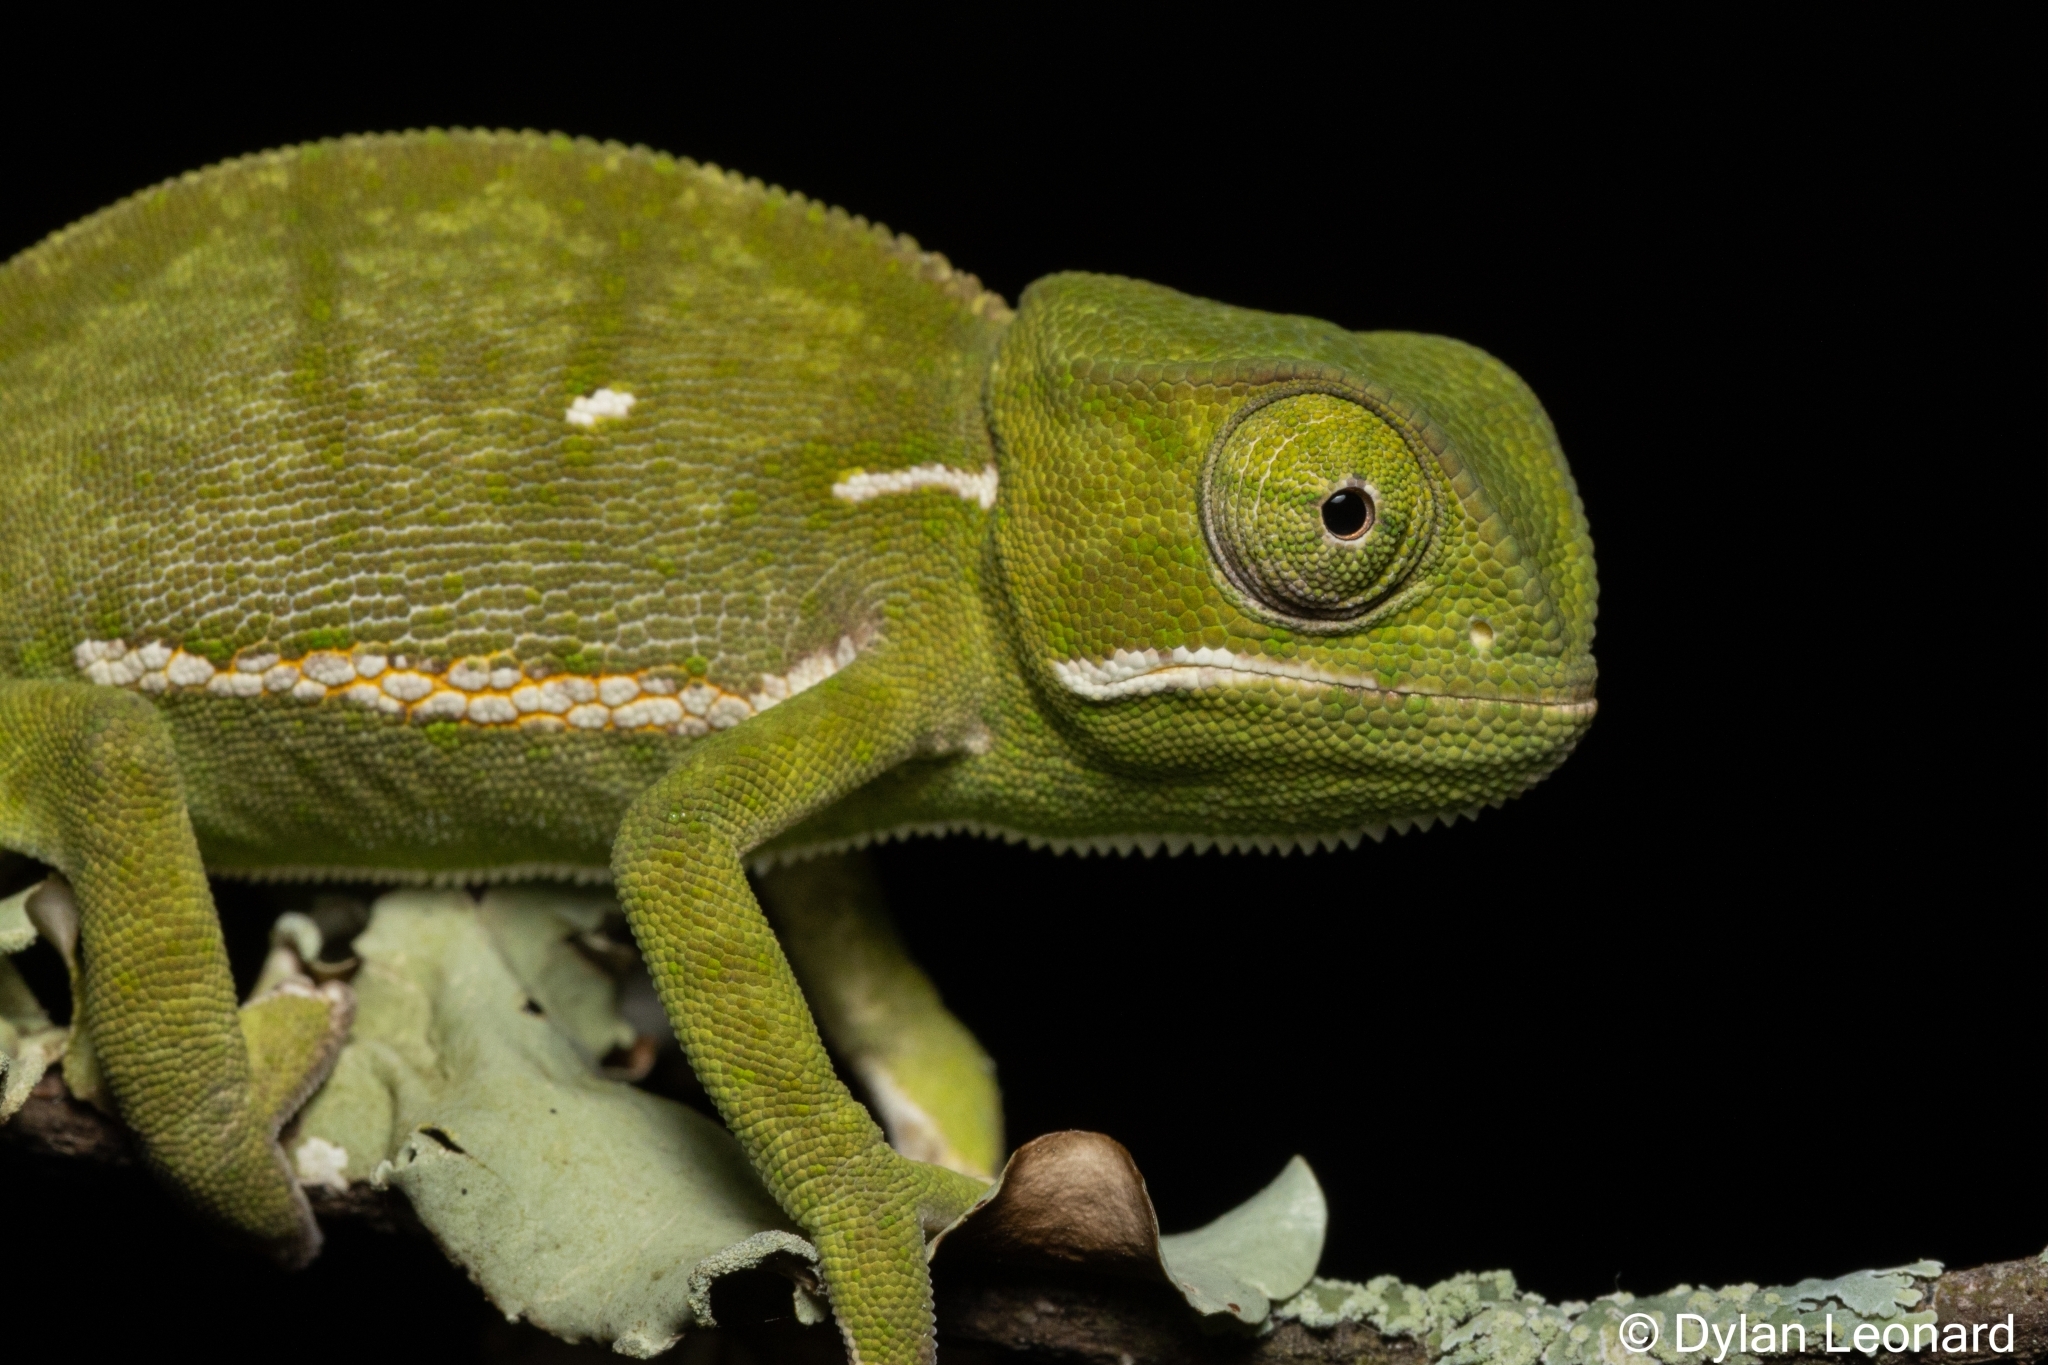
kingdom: Animalia
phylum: Chordata
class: Squamata
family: Chamaeleonidae
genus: Chamaeleo
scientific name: Chamaeleo dilepis
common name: Flapneck chameleon
